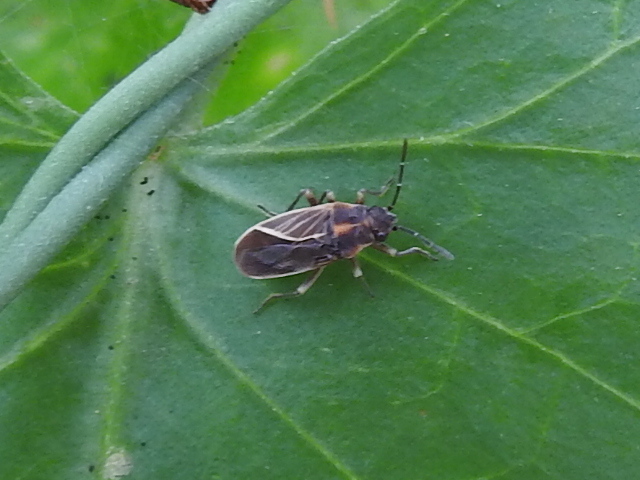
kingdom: Animalia
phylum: Arthropoda
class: Insecta
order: Hemiptera
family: Lygaeidae
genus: Ochrimnus
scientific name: Ochrimnus carnosulus
